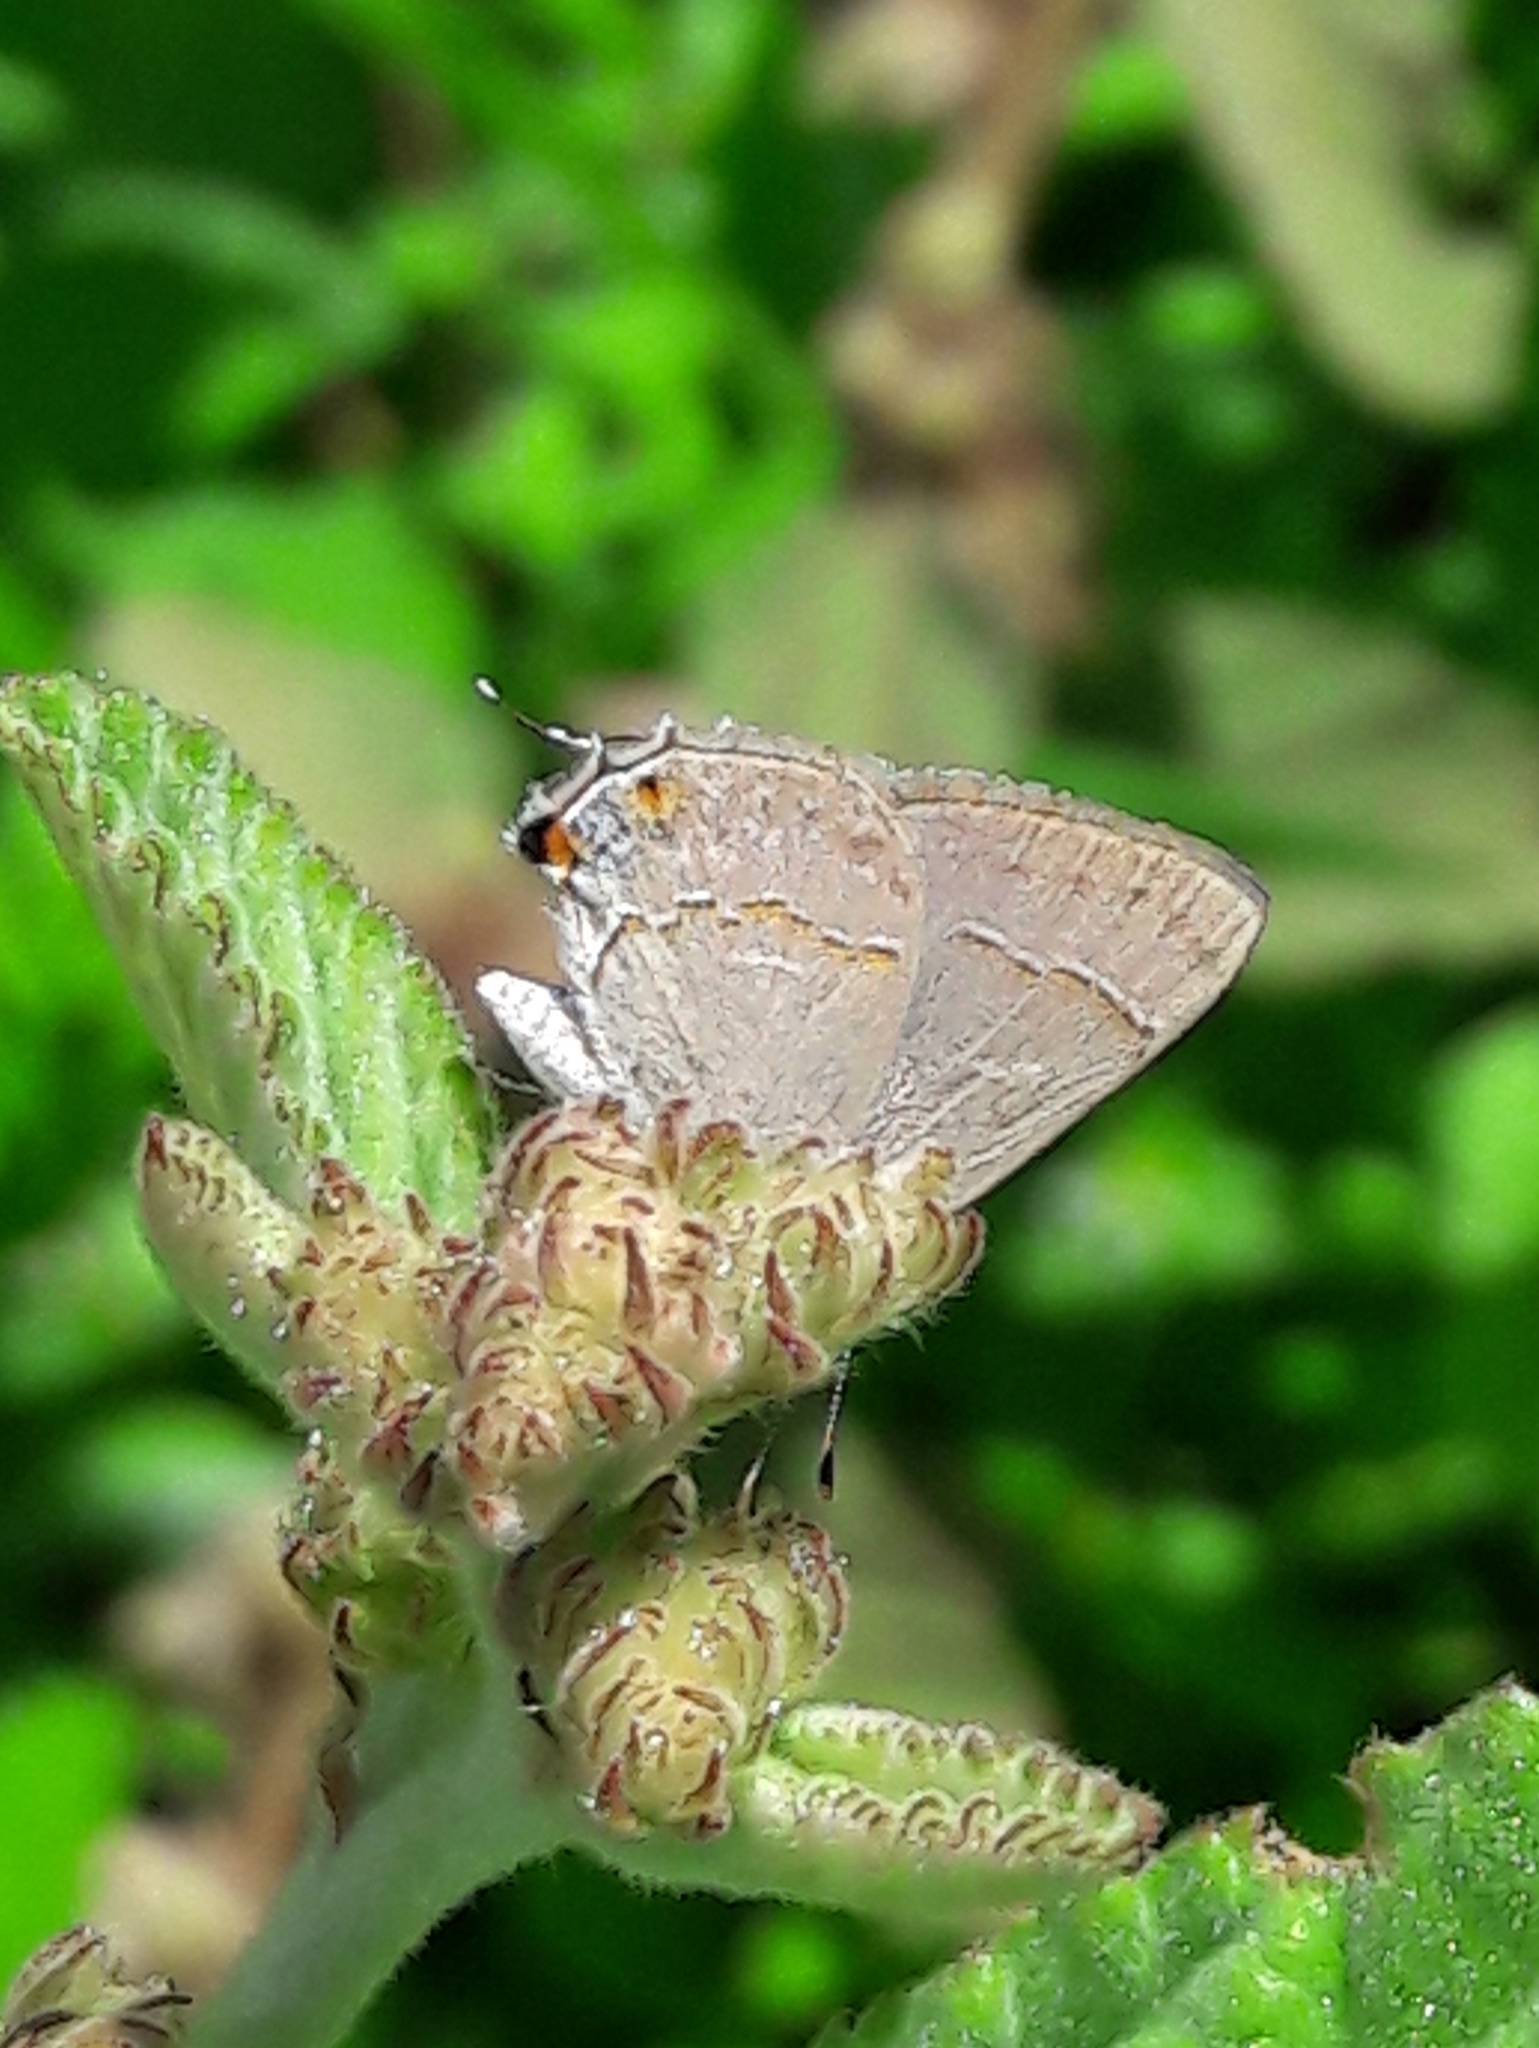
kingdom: Animalia
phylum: Arthropoda
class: Insecta
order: Lepidoptera
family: Lycaenidae
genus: Thecla
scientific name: Thecla gnosia
